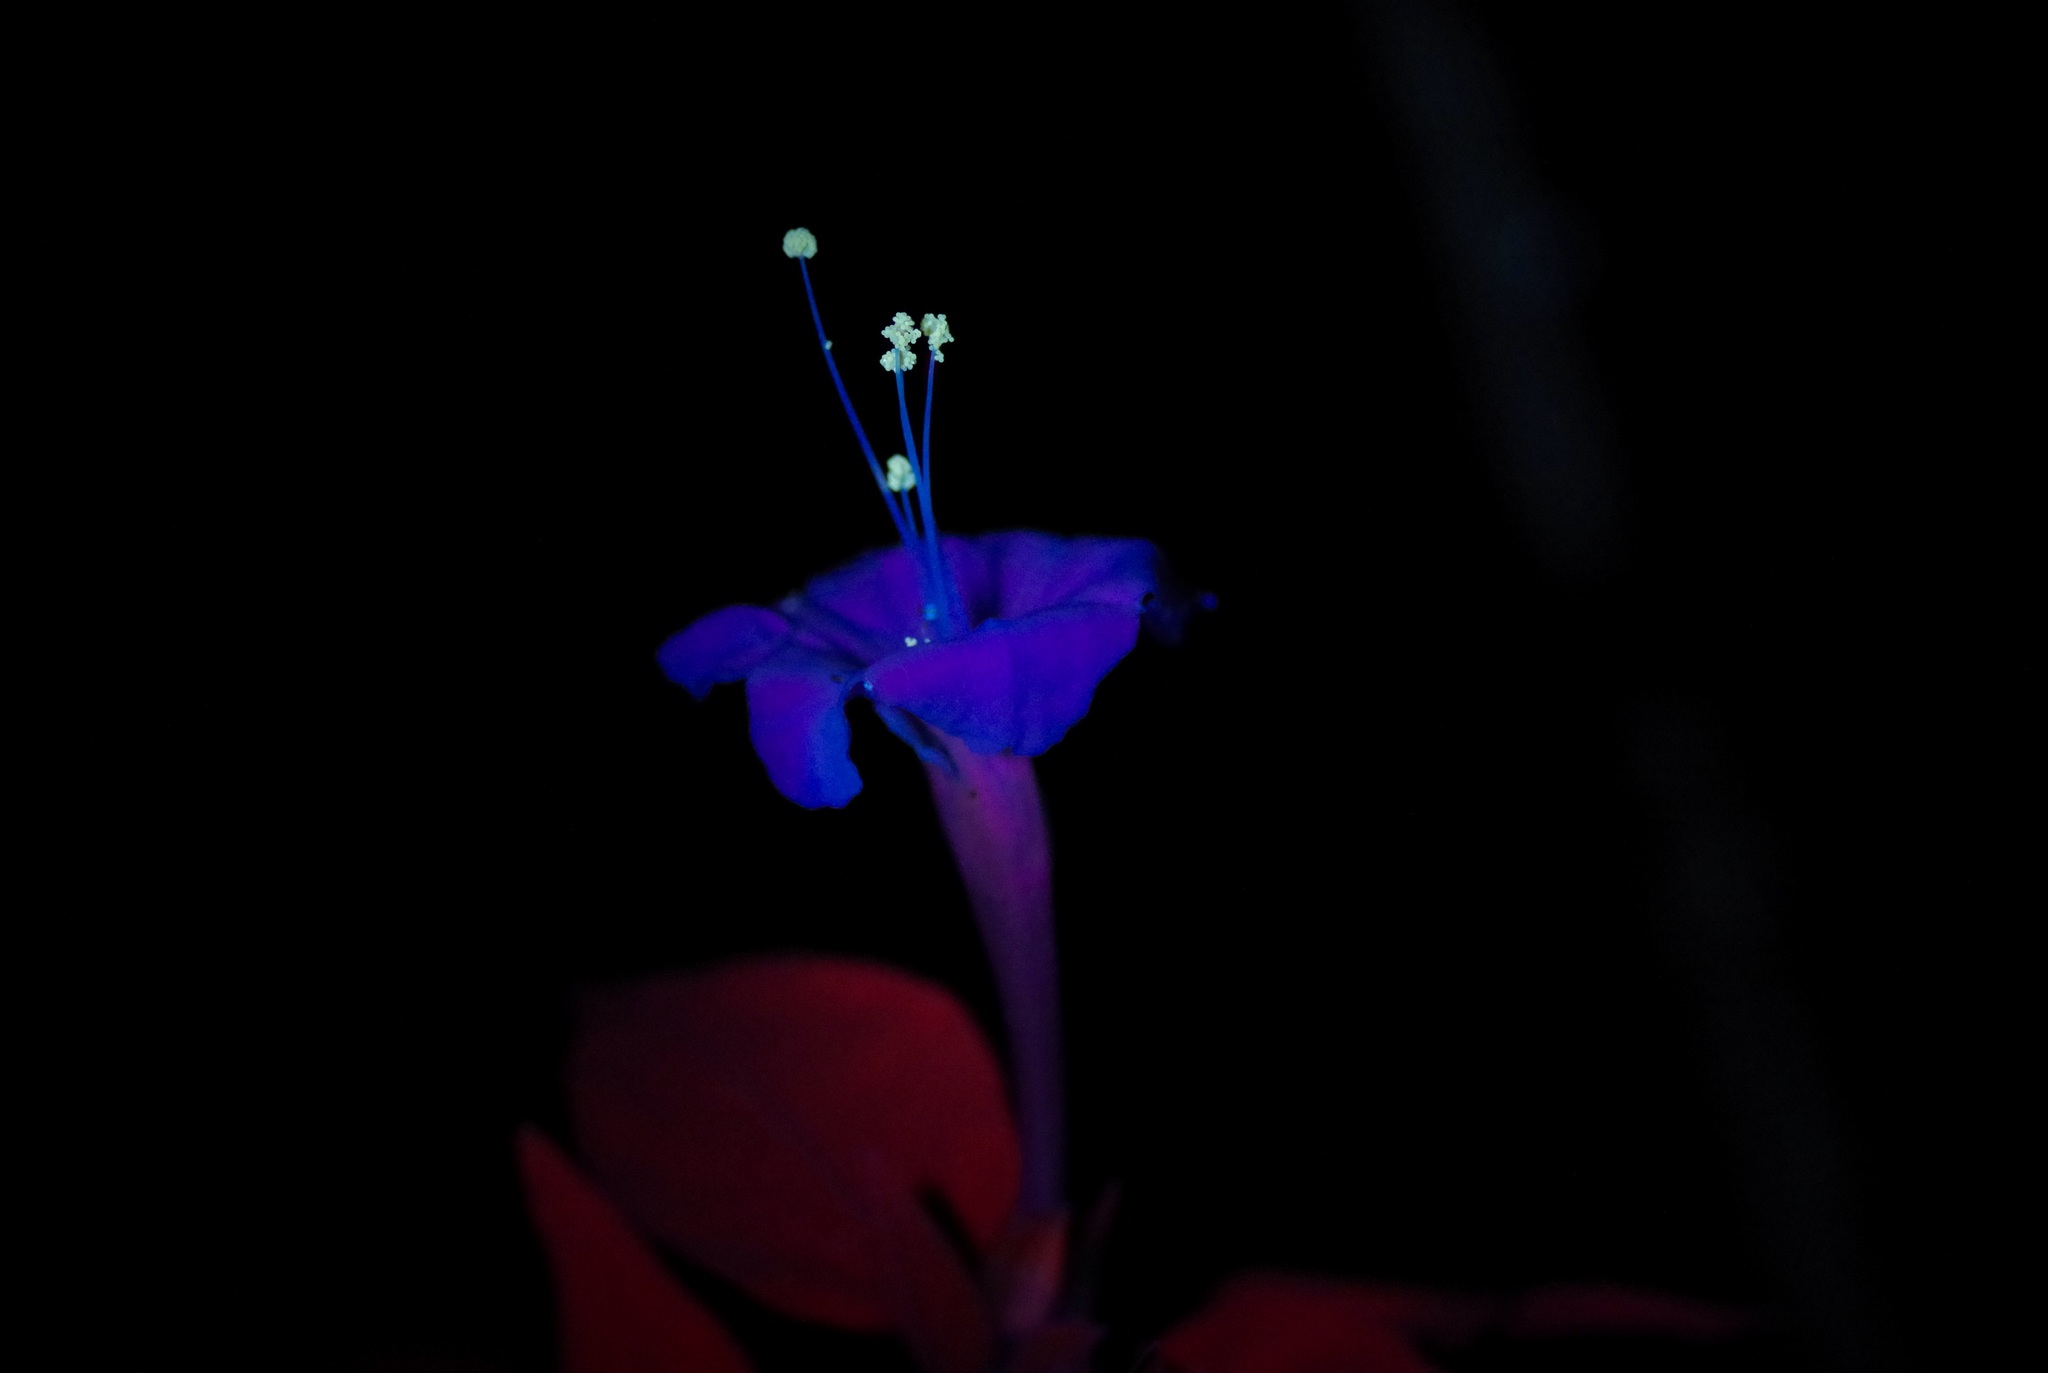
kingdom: Plantae
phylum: Tracheophyta
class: Magnoliopsida
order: Caryophyllales
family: Nyctaginaceae
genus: Mirabilis
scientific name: Mirabilis jalapa
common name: Marvel-of-peru
